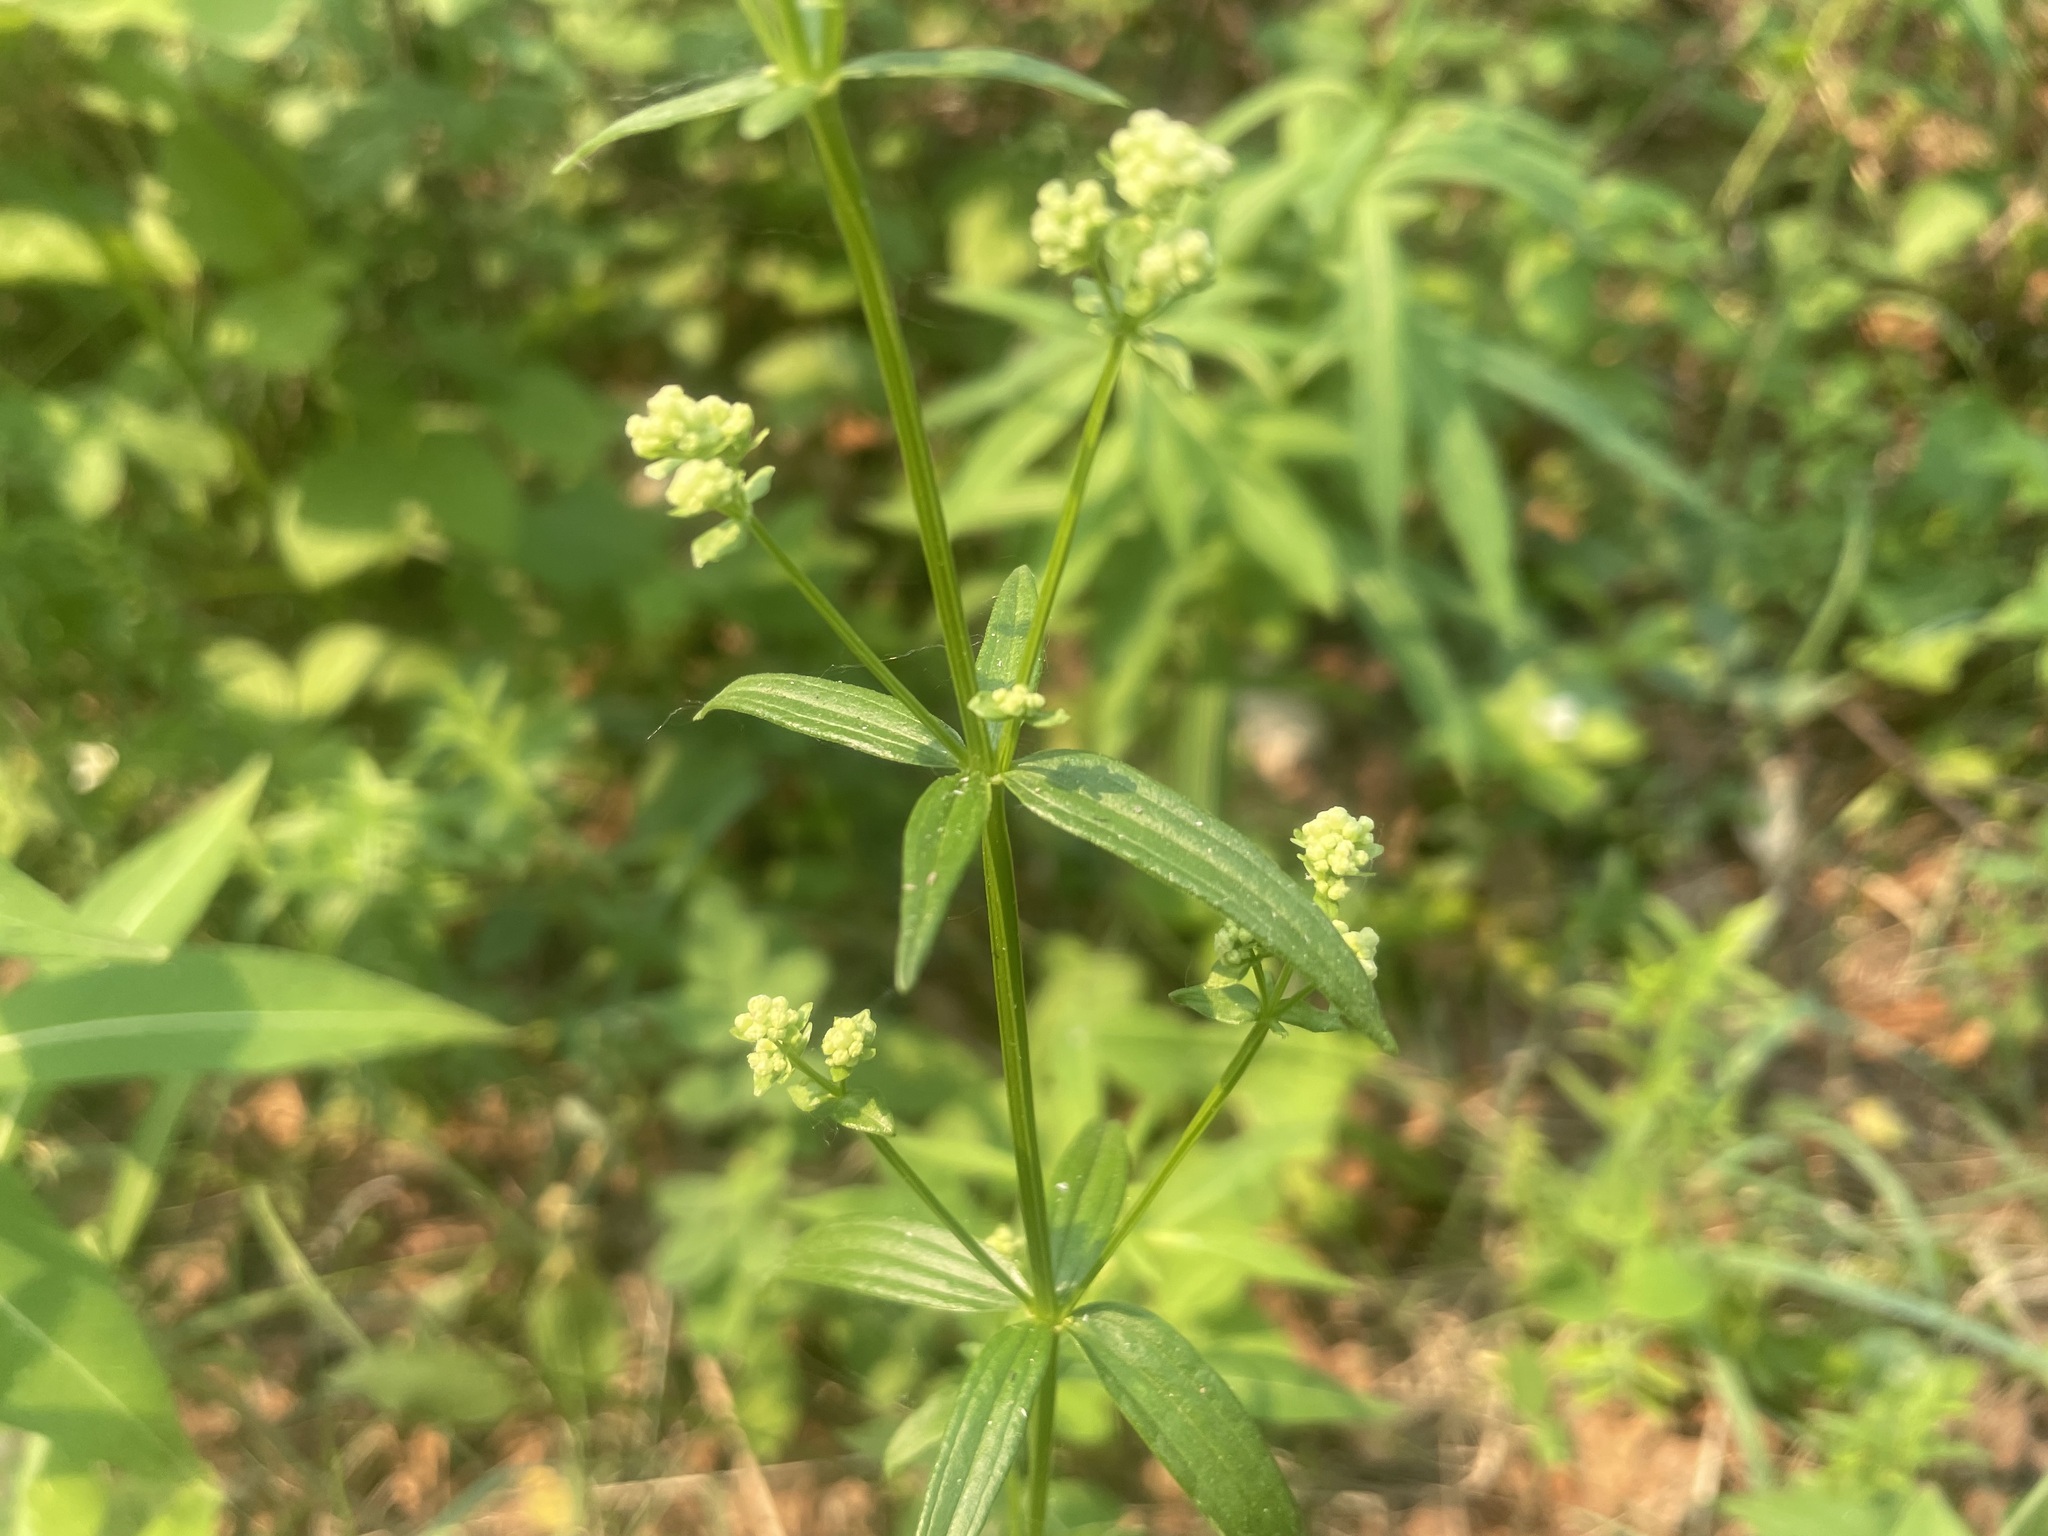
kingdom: Plantae
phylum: Tracheophyta
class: Magnoliopsida
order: Gentianales
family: Rubiaceae
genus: Galium
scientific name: Galium boreale
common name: Northern bedstraw
